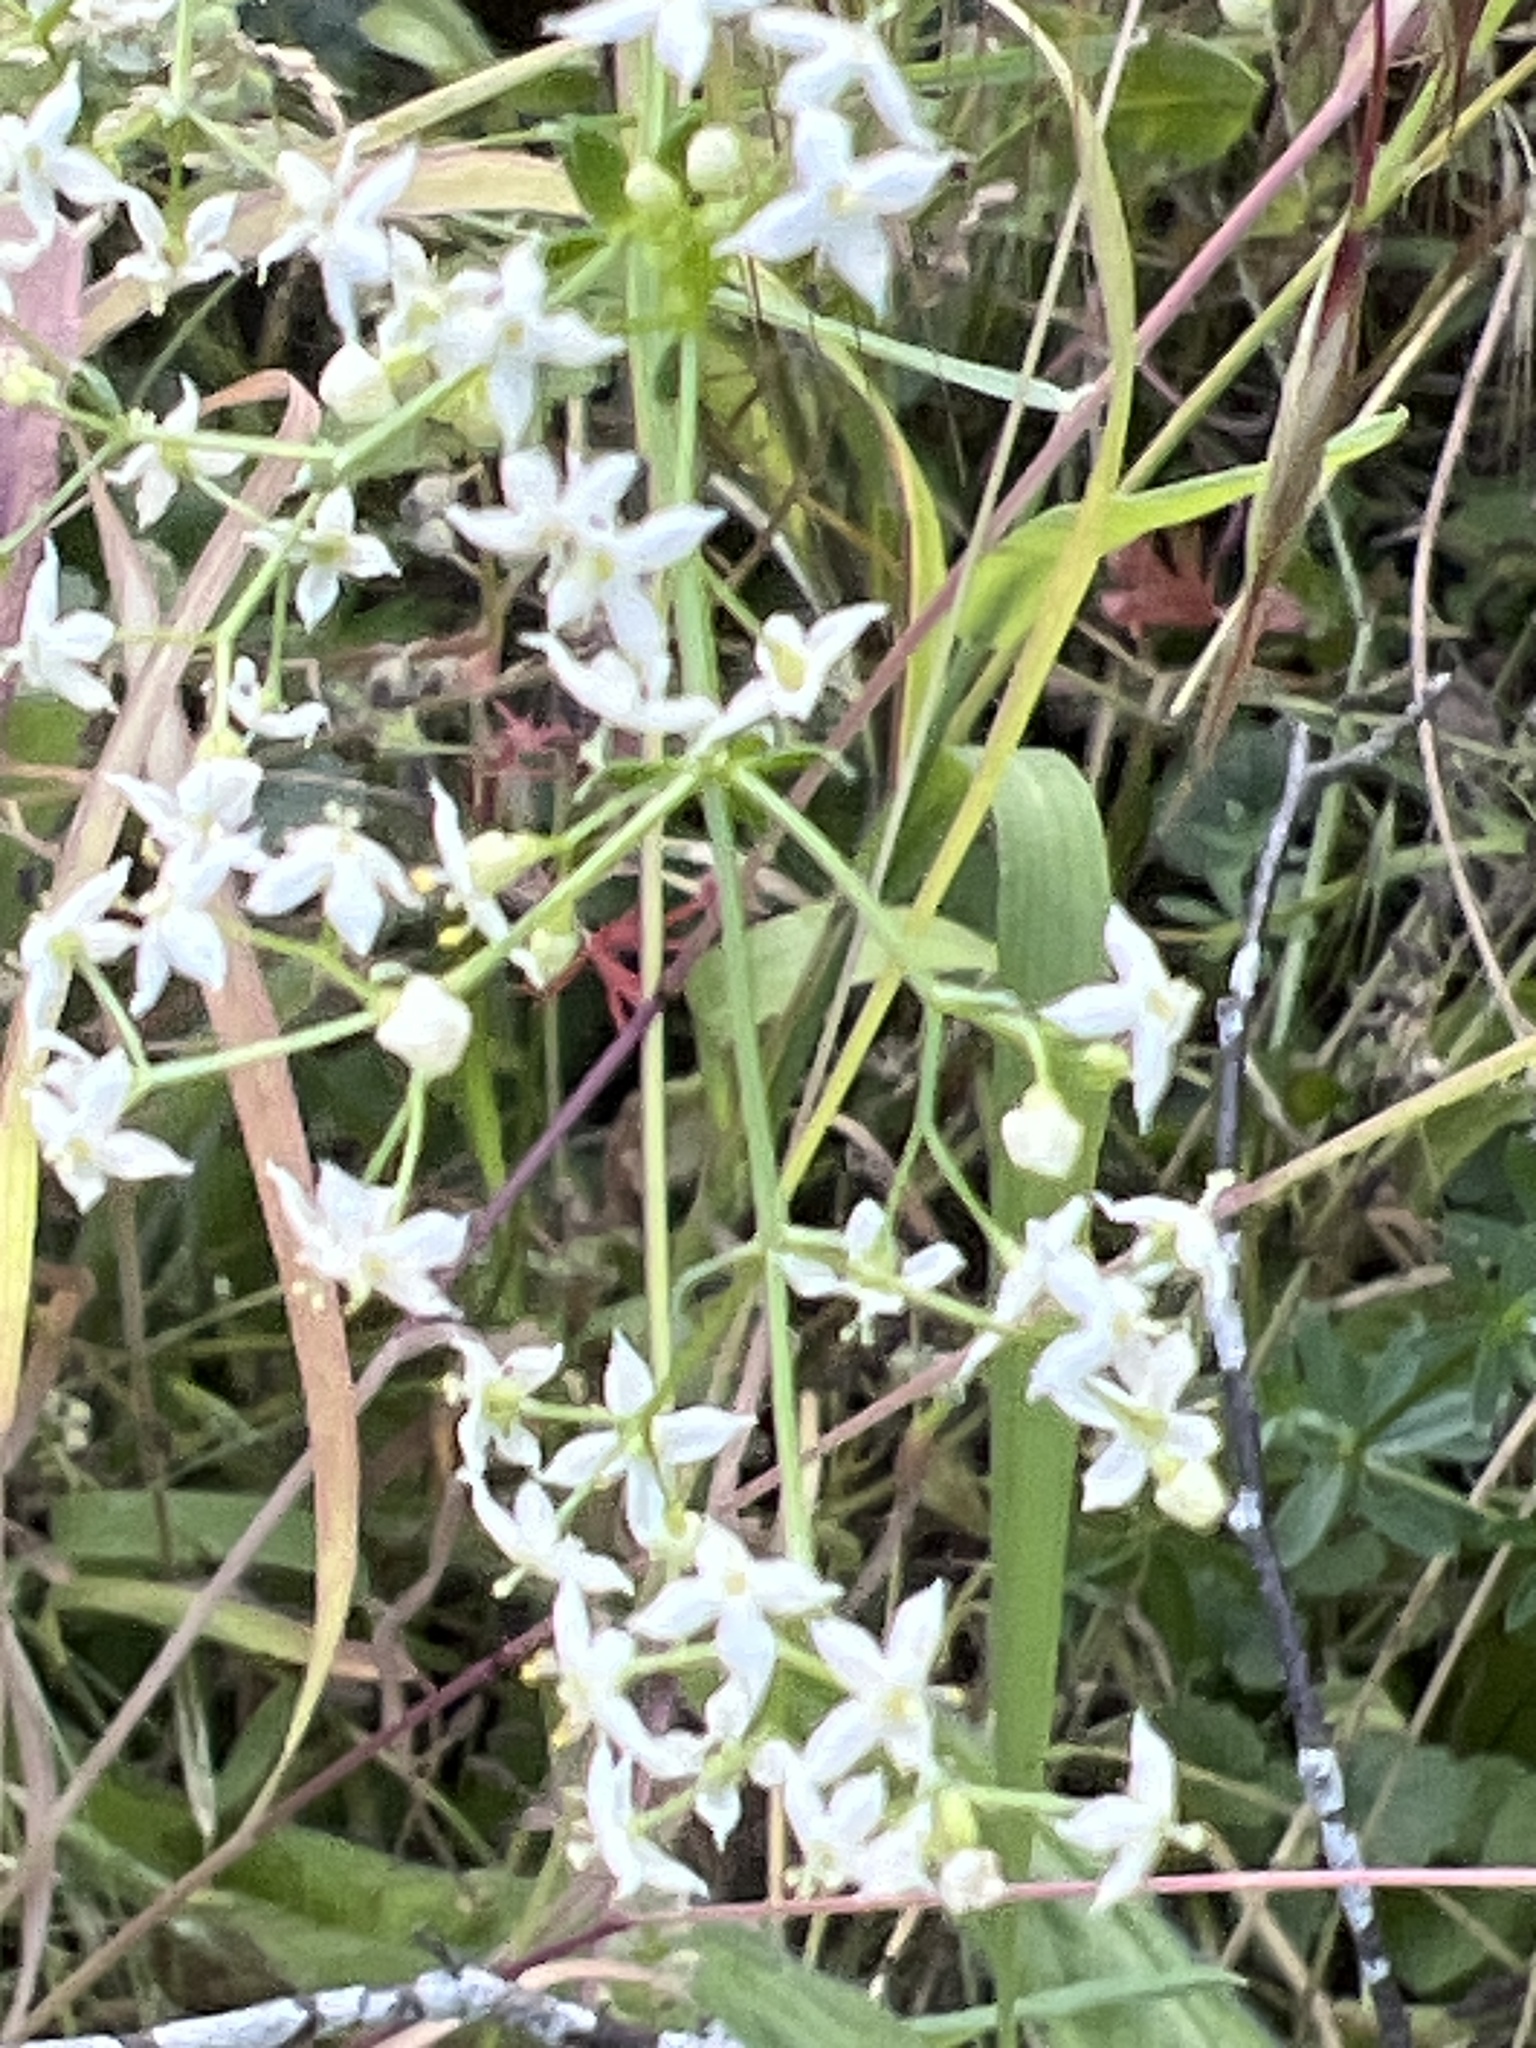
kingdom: Plantae
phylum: Tracheophyta
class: Magnoliopsida
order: Gentianales
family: Rubiaceae
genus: Galium
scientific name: Galium album
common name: White bedstraw
